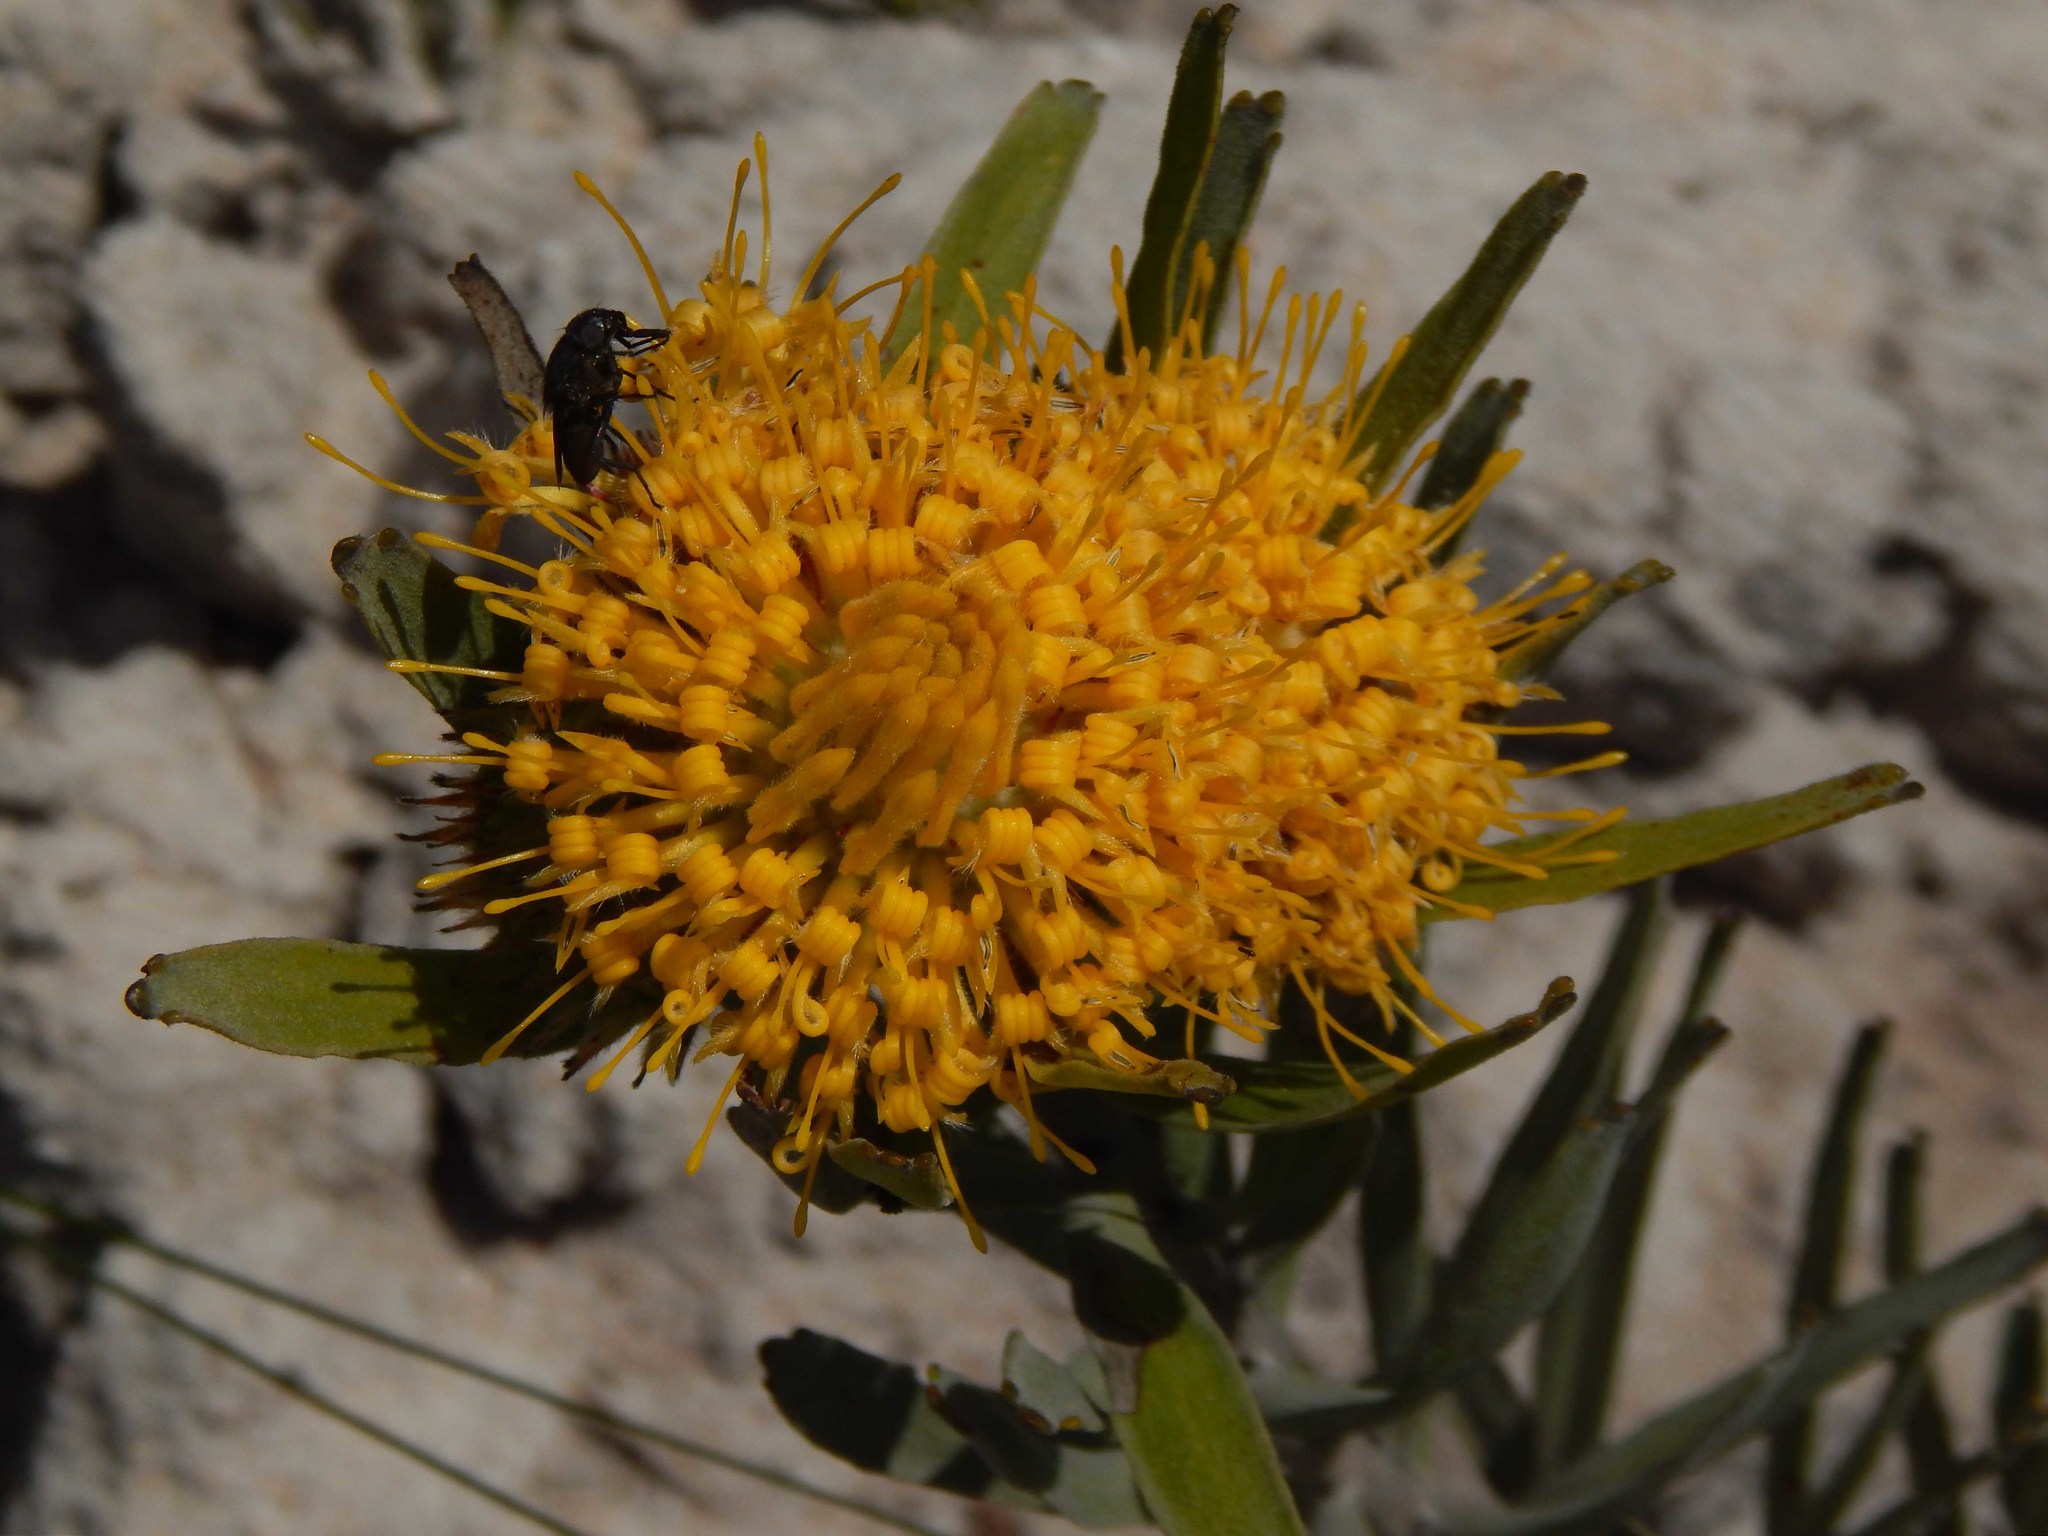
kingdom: Plantae
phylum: Tracheophyta
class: Magnoliopsida
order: Proteales
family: Proteaceae
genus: Leucospermum
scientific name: Leucospermum
